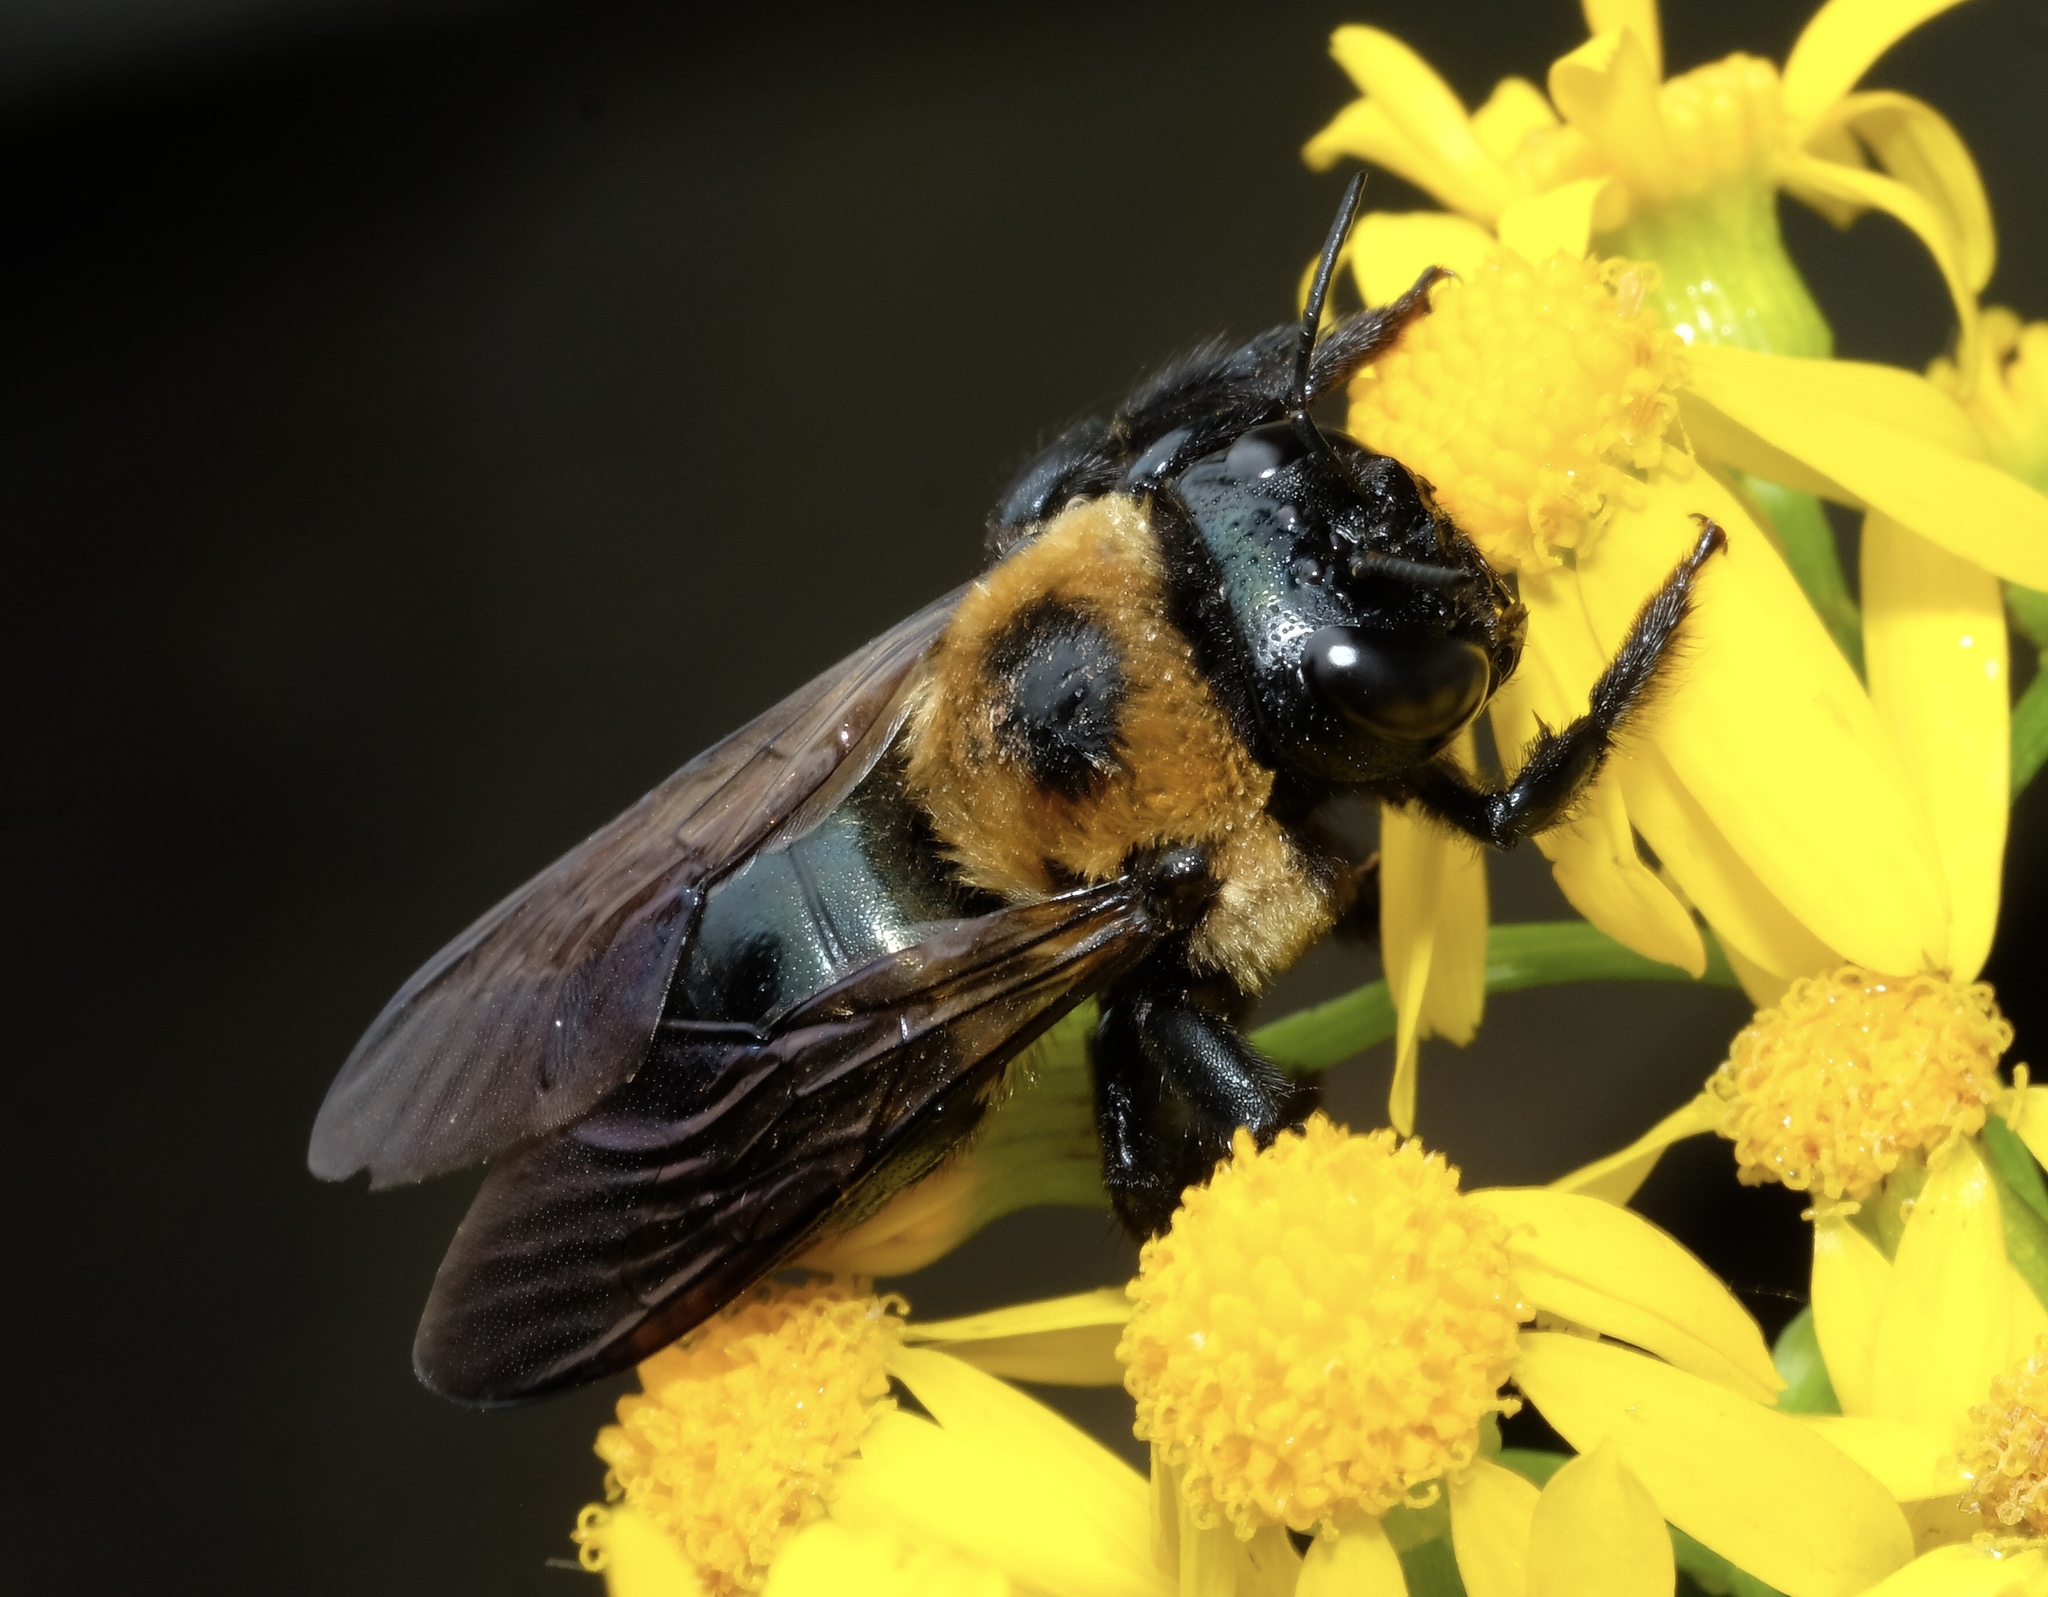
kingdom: Animalia
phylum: Arthropoda
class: Insecta
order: Hymenoptera
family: Apidae
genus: Xylocopa
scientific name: Xylocopa virginica
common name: Carpenter bee
